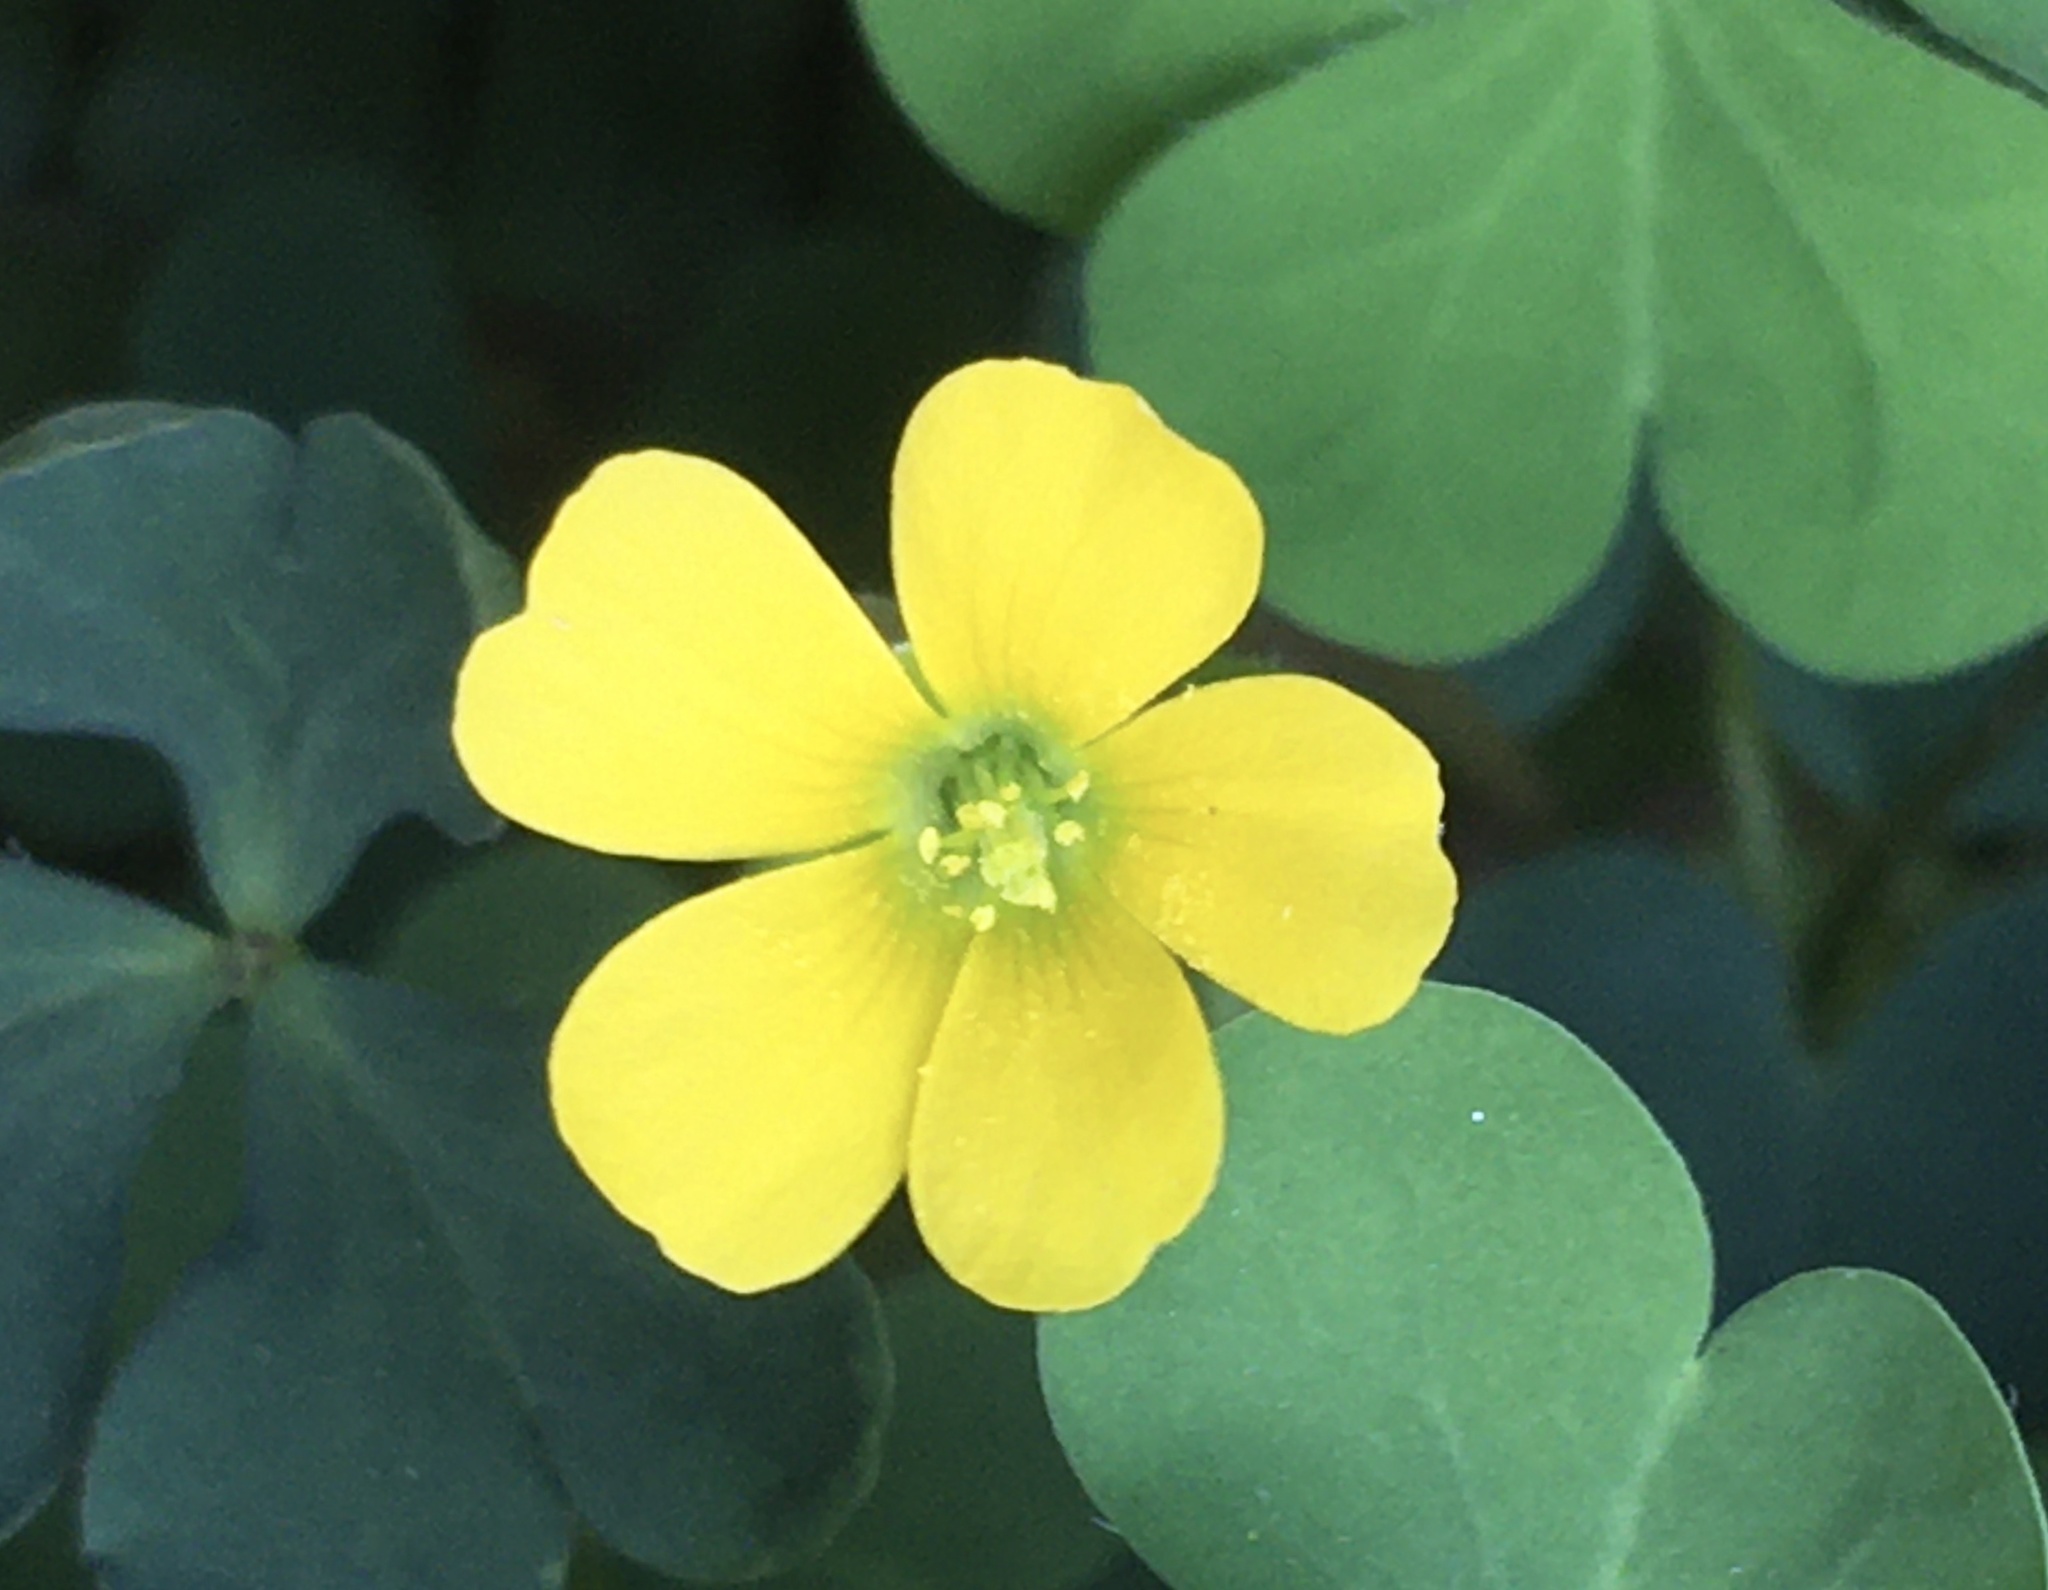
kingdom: Plantae
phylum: Tracheophyta
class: Magnoliopsida
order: Oxalidales
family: Oxalidaceae
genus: Oxalis
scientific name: Oxalis corniculata
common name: Procumbent yellow-sorrel
